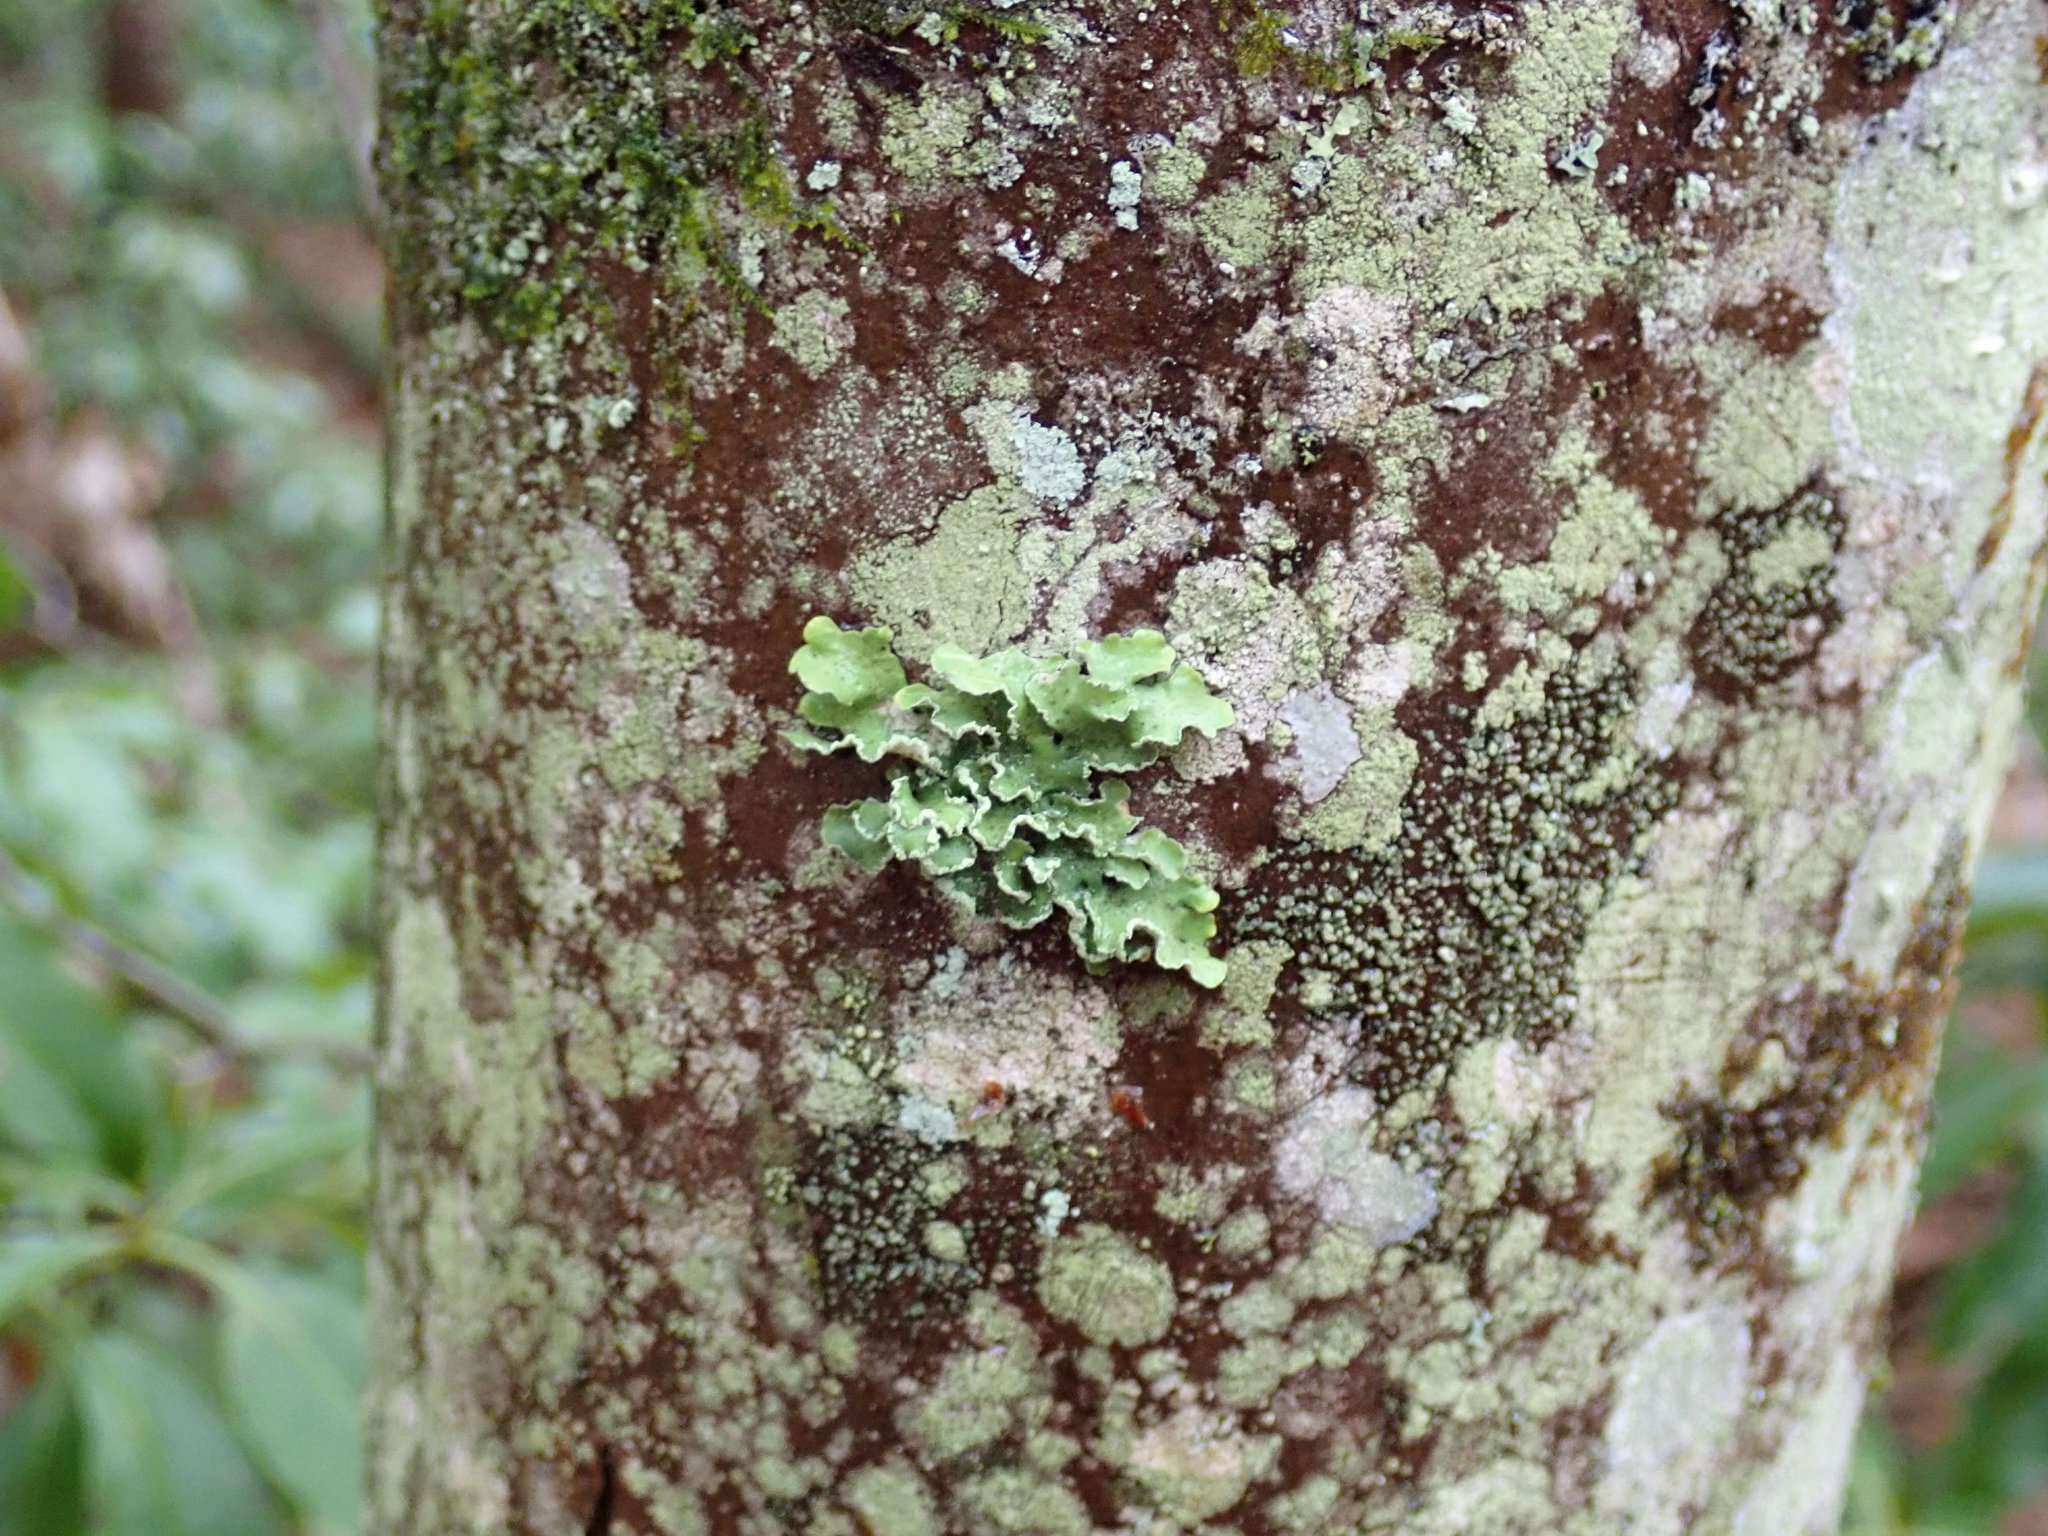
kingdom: Fungi
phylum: Ascomycota
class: Lecanoromycetes
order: Lecanorales
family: Parmeliaceae
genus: Usnocetraria
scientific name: Usnocetraria oakesiana
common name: Yellow ribbon lichen
